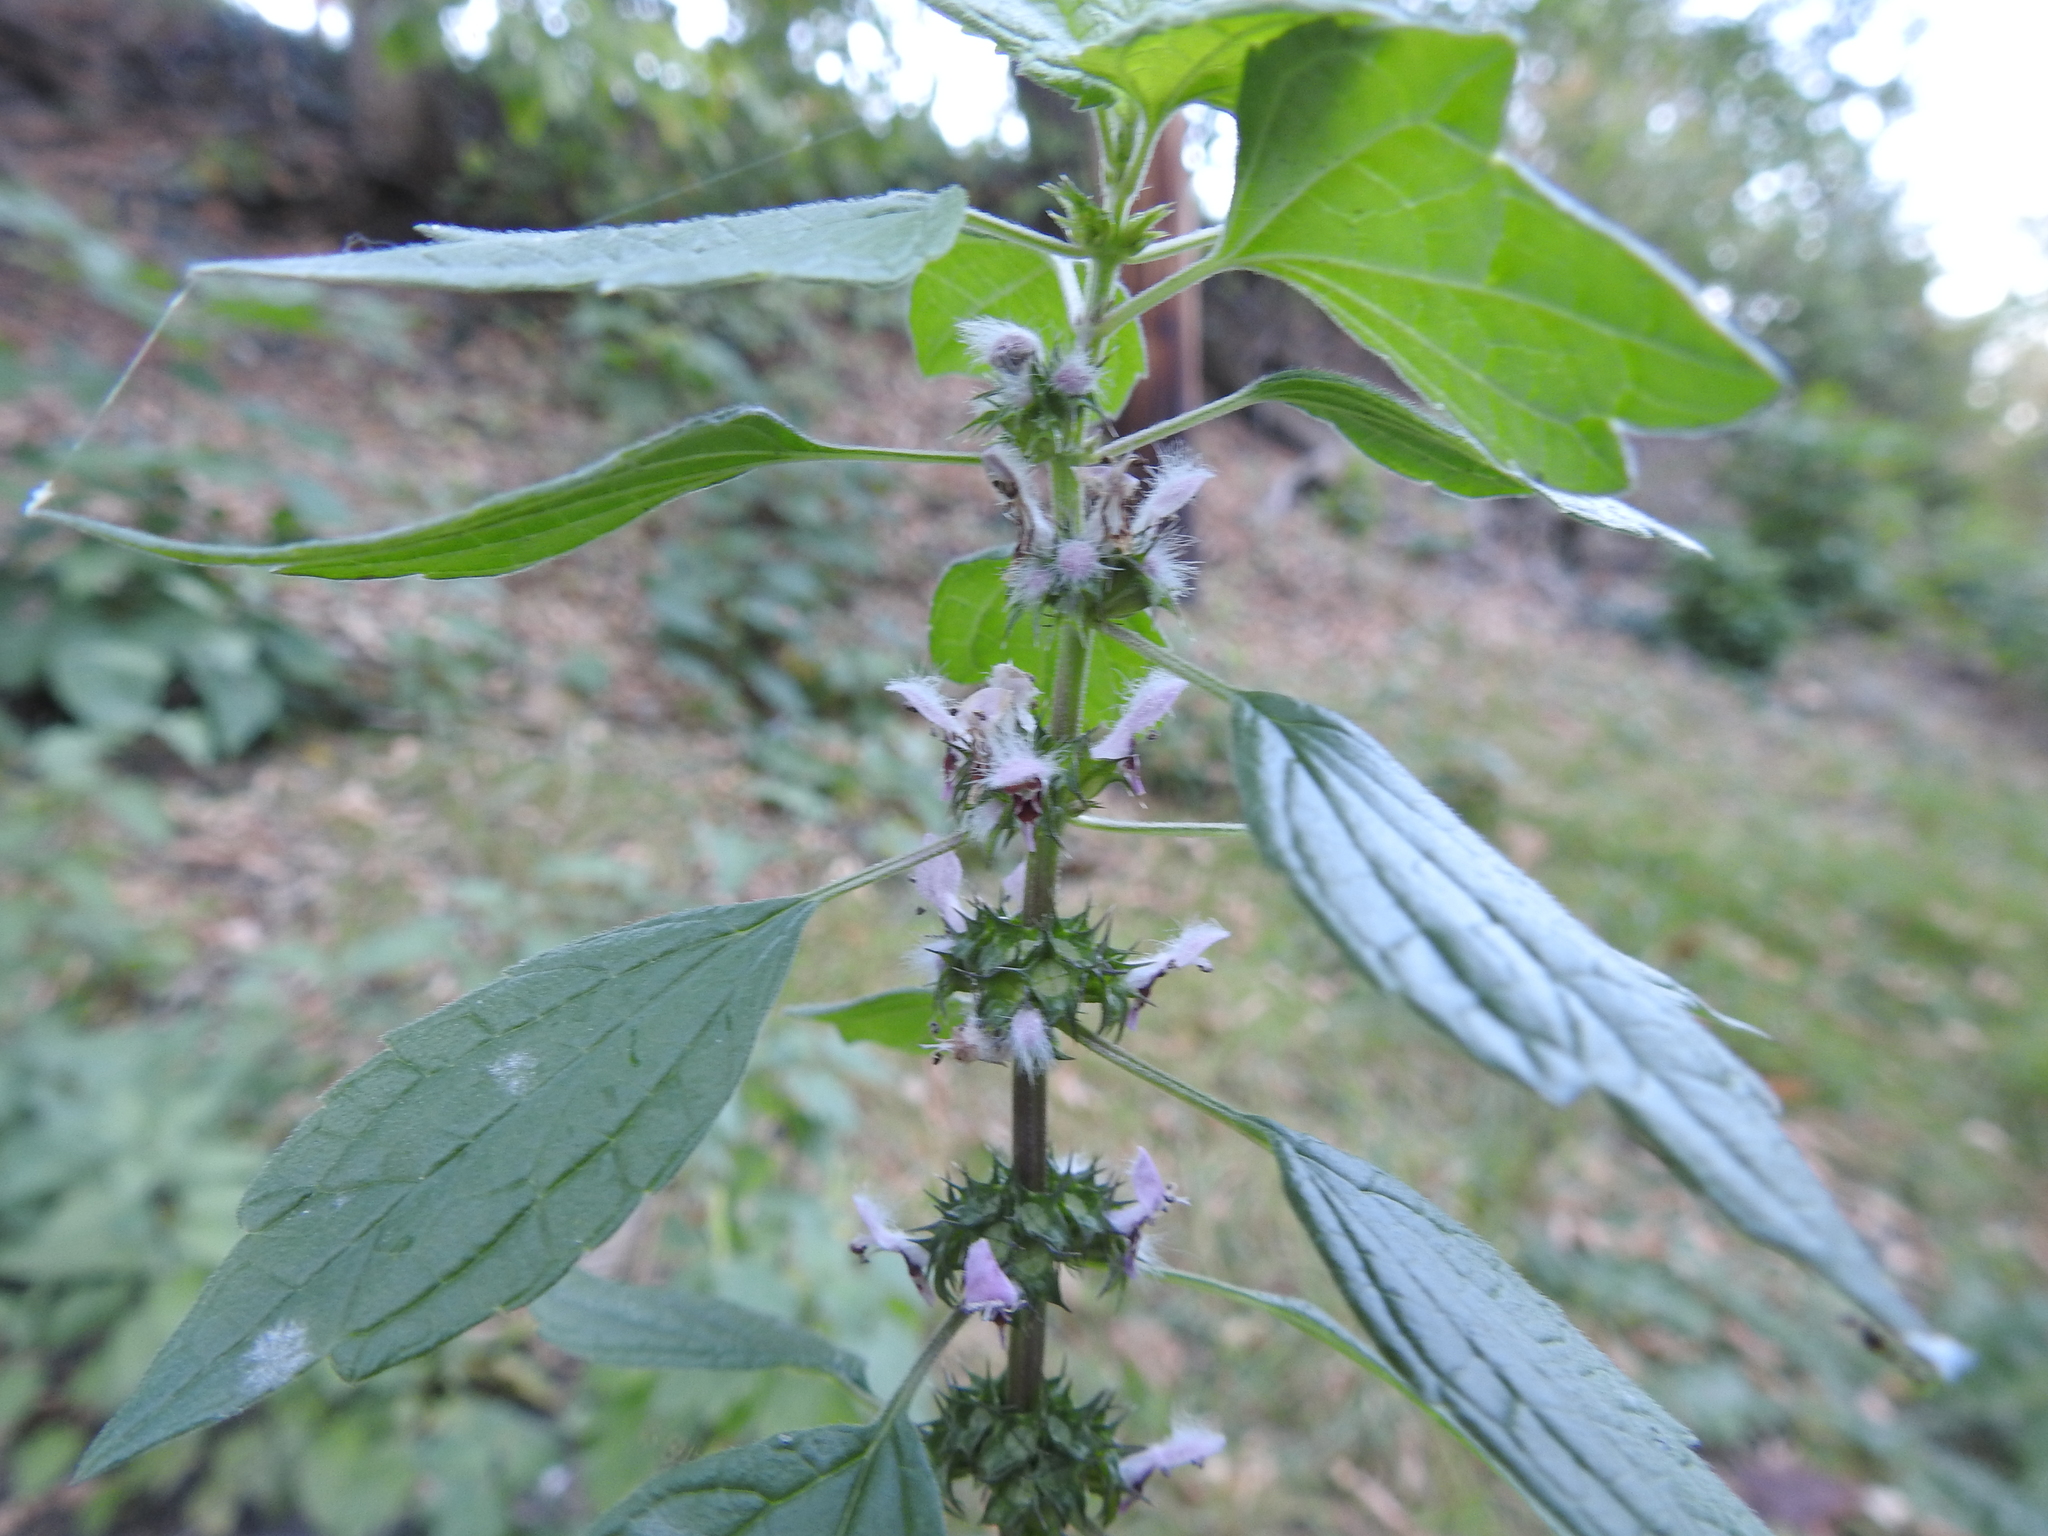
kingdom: Plantae
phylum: Tracheophyta
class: Magnoliopsida
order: Lamiales
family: Lamiaceae
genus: Leonurus
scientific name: Leonurus cardiaca
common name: Motherwort
